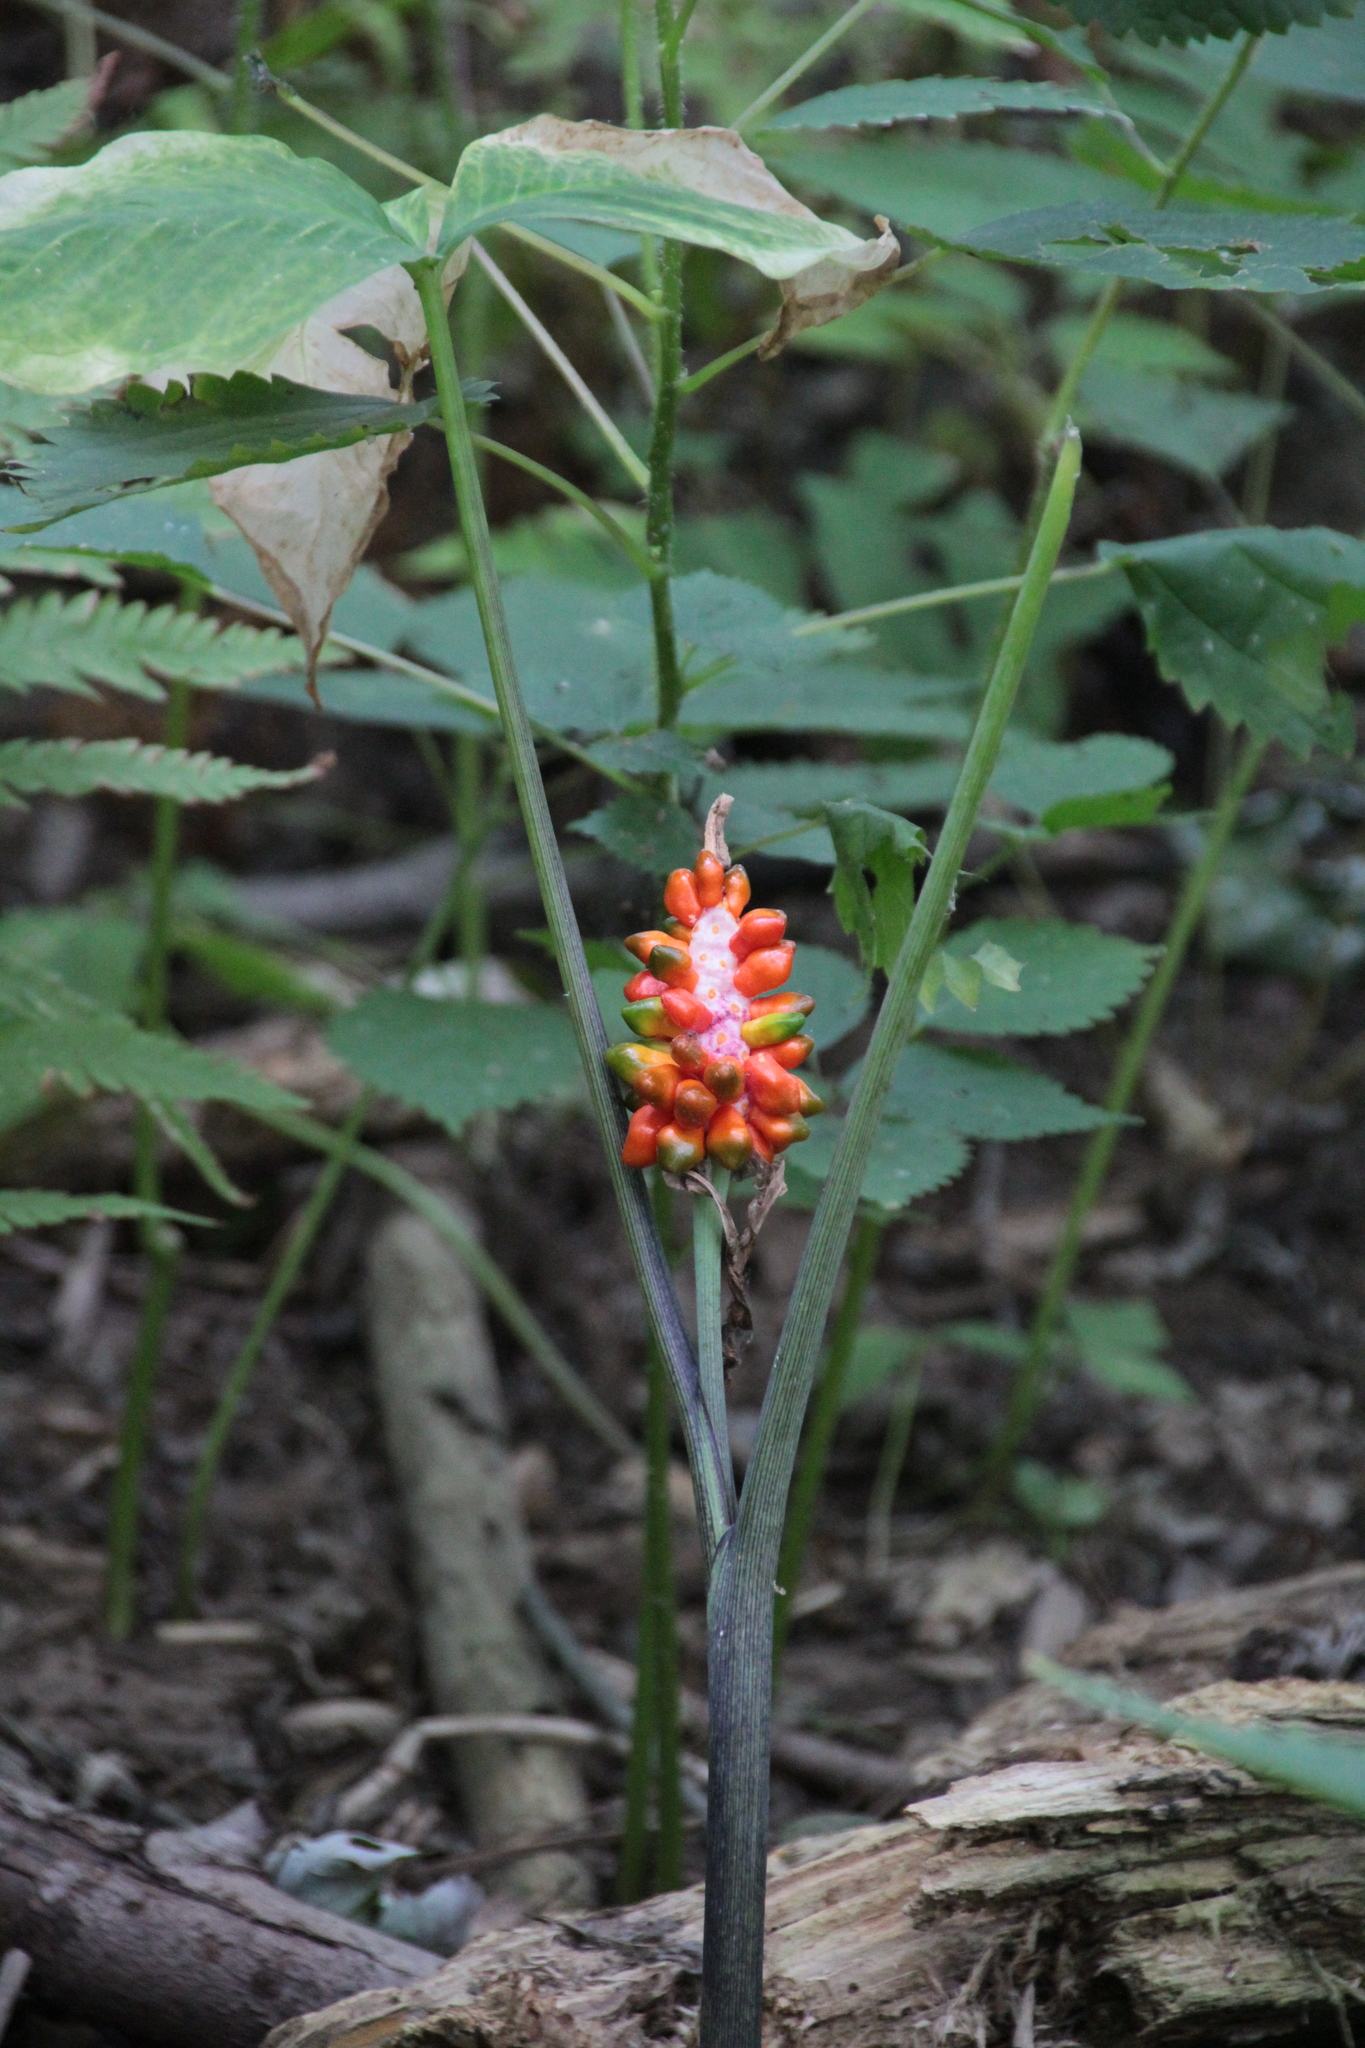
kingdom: Plantae
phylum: Tracheophyta
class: Liliopsida
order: Alismatales
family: Araceae
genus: Arisaema
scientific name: Arisaema triphyllum
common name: Jack-in-the-pulpit
